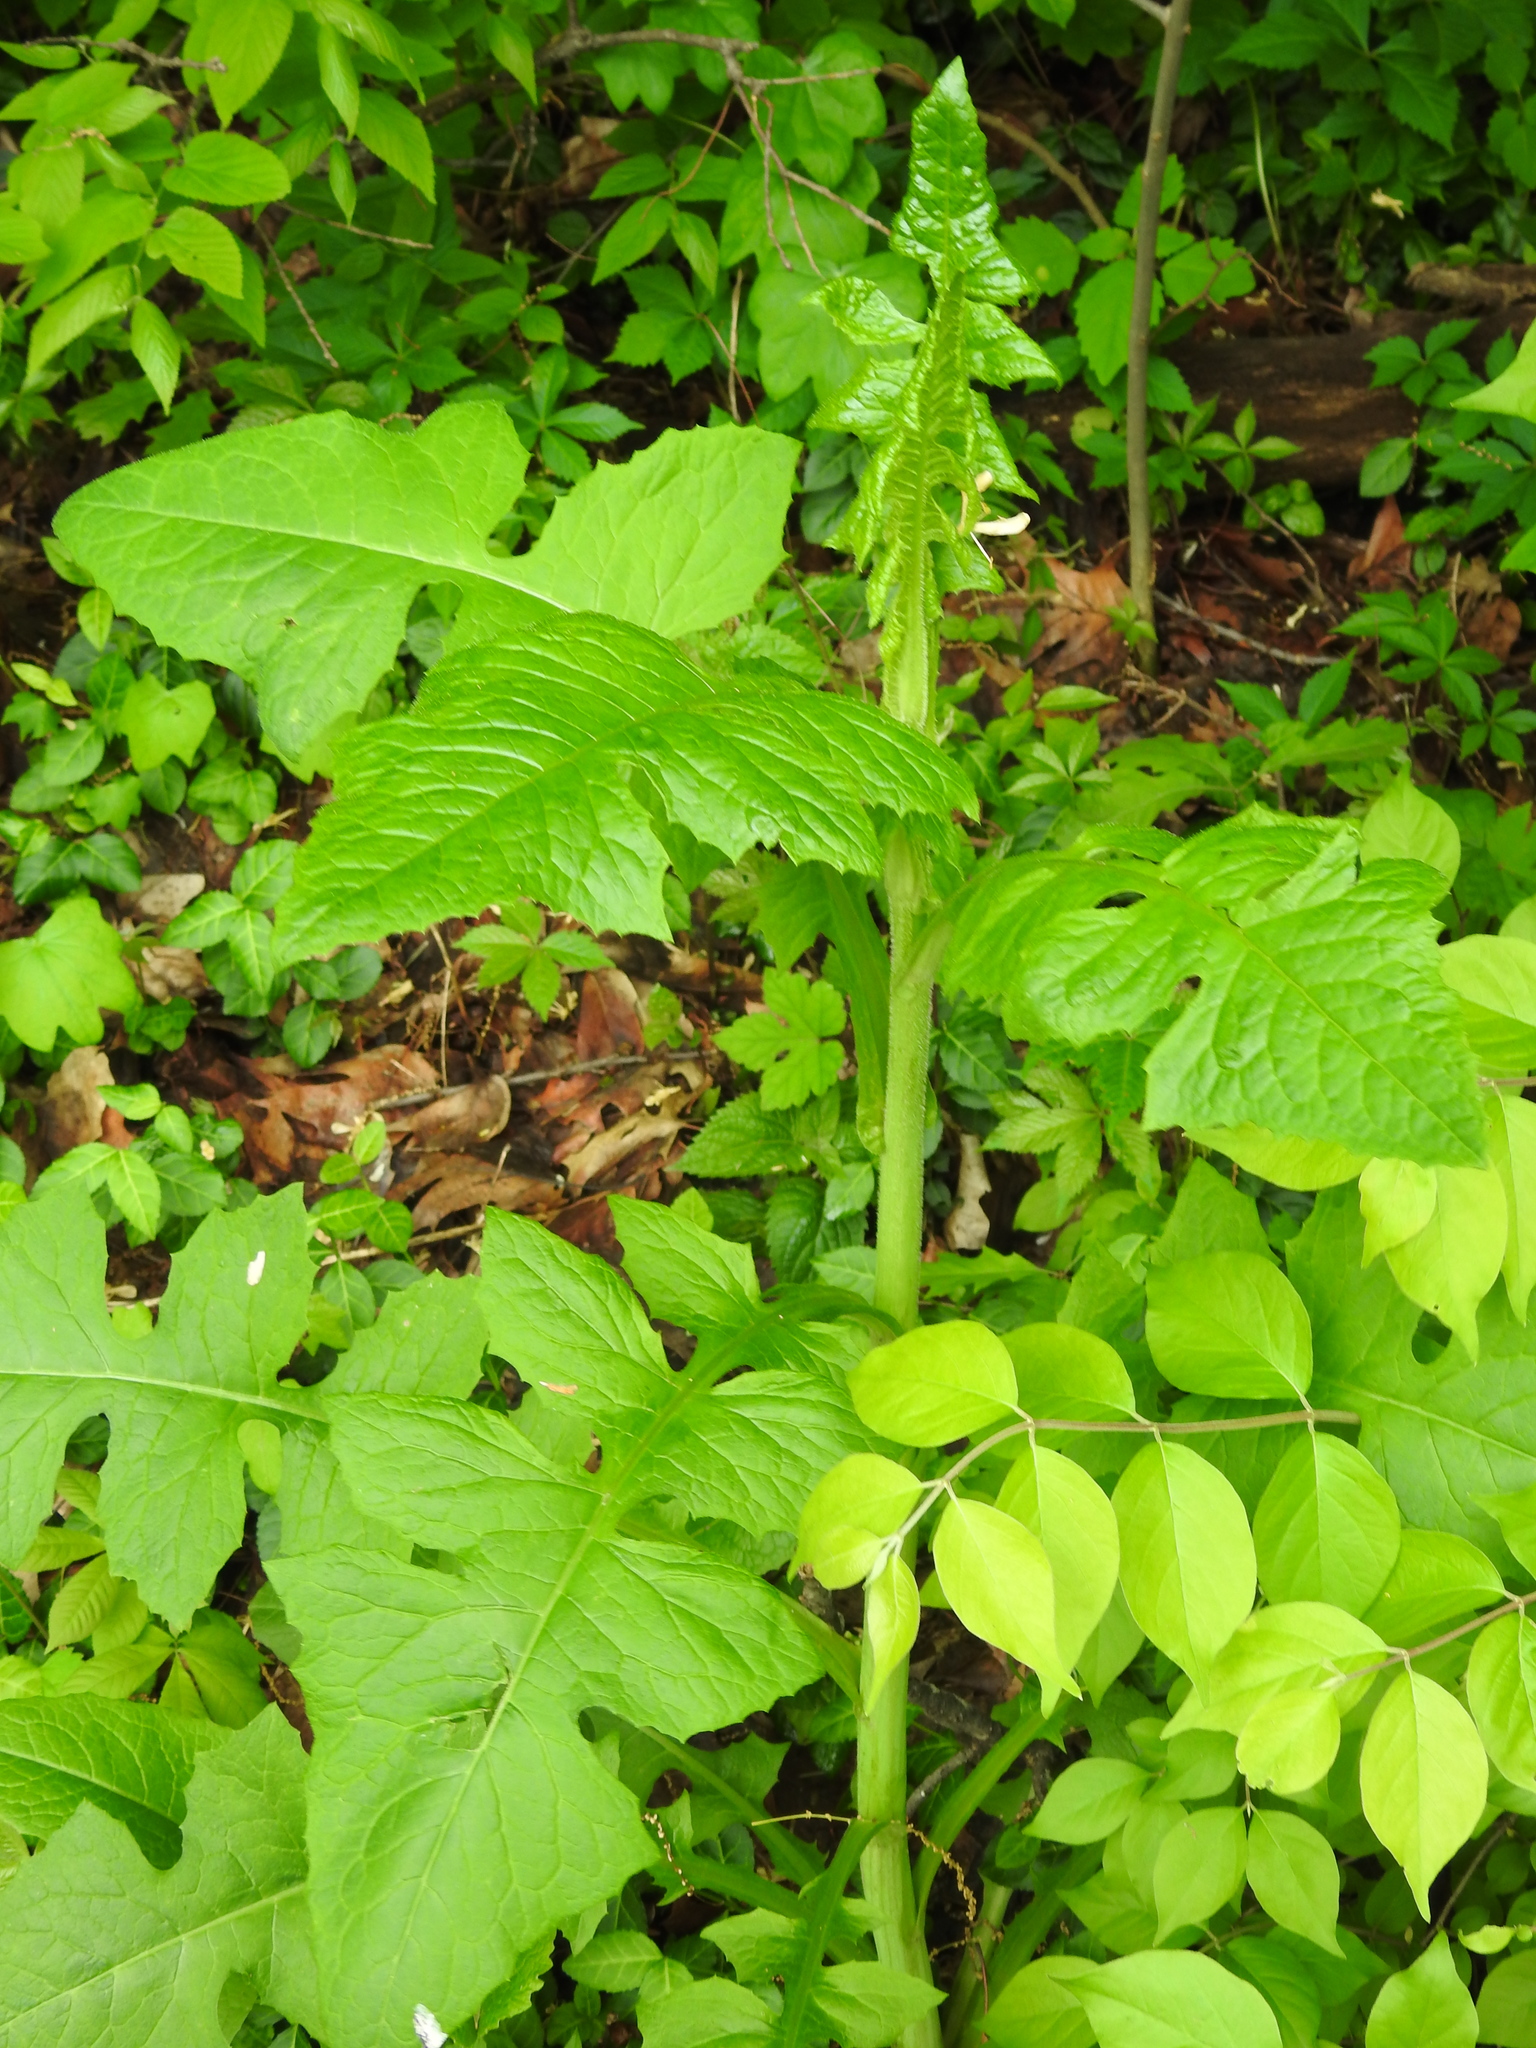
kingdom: Plantae
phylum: Tracheophyta
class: Magnoliopsida
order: Asterales
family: Asteraceae
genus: Lactuca
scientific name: Lactuca biennis
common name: Blue wood lettuce
